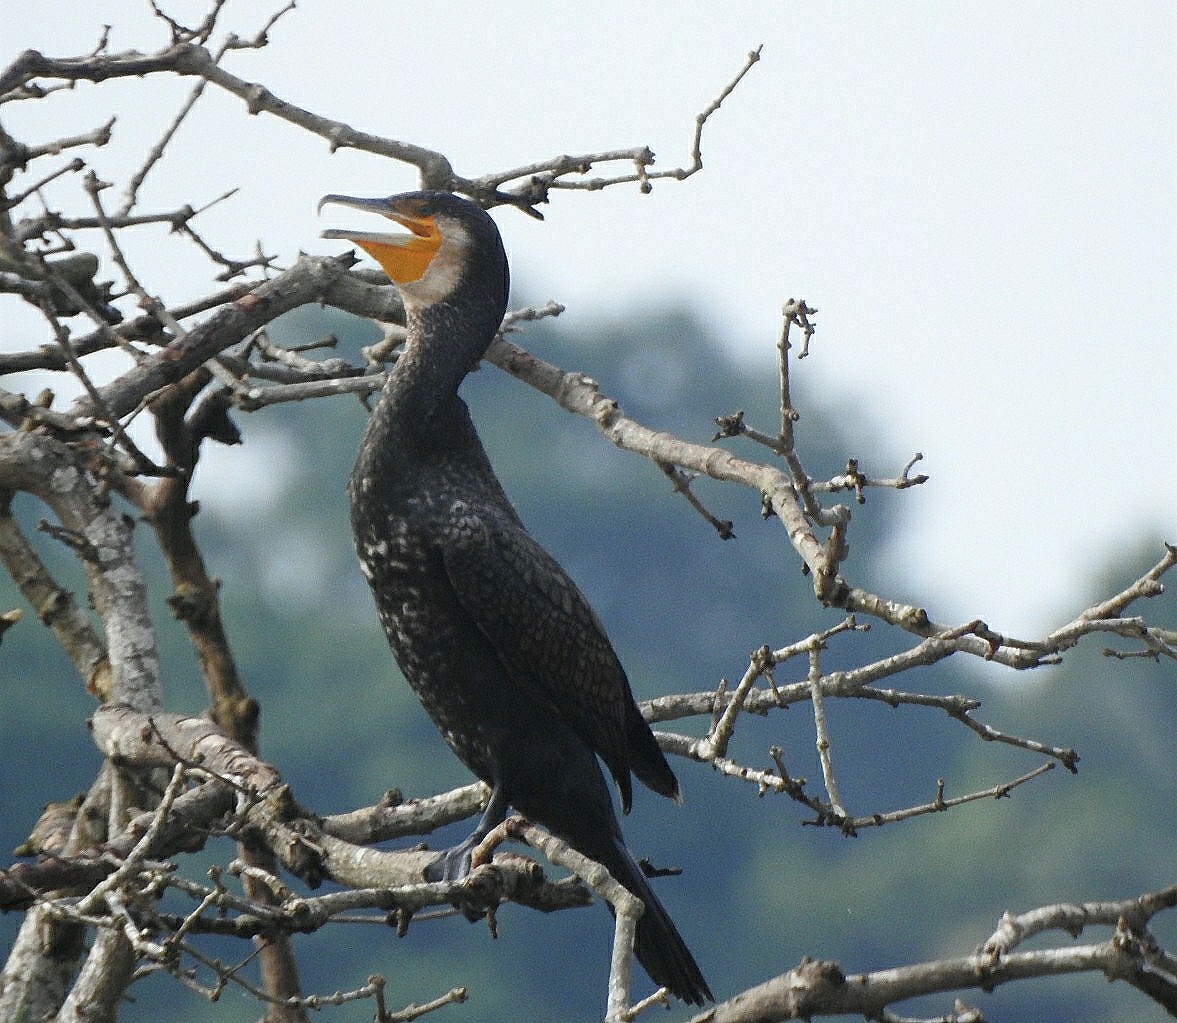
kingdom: Animalia
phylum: Chordata
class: Aves
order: Suliformes
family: Phalacrocoracidae
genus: Phalacrocorax
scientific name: Phalacrocorax carbo
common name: Great cormorant
